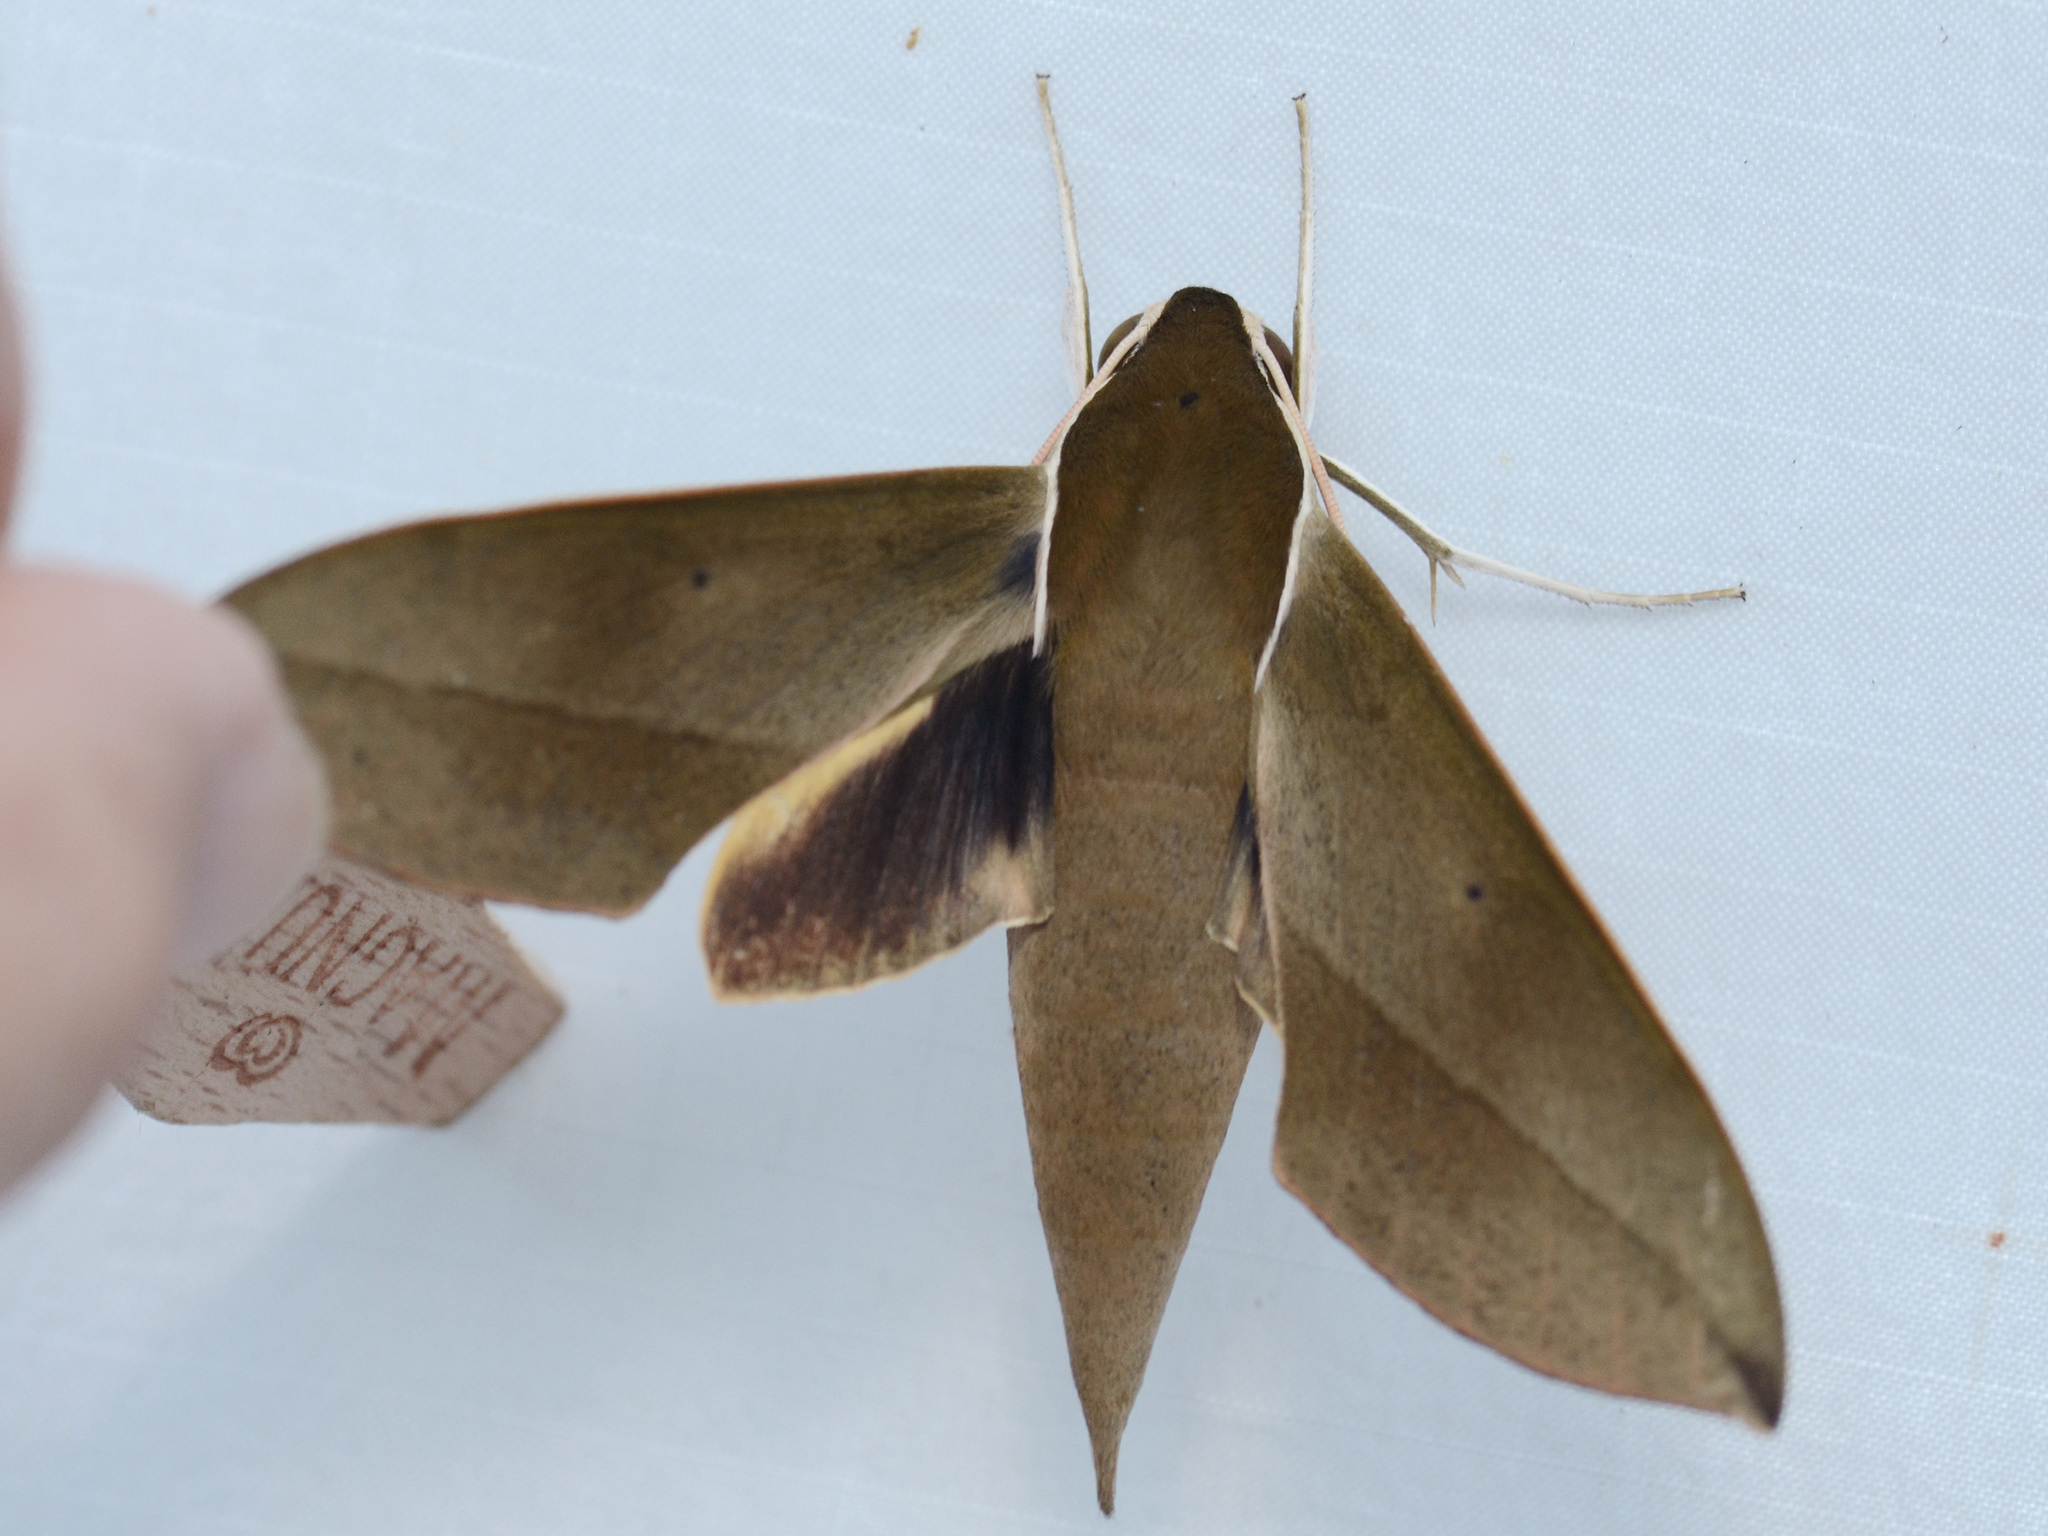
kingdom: Animalia
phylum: Arthropoda
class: Insecta
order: Lepidoptera
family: Sphingidae
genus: Theretra
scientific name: Theretra clotho
